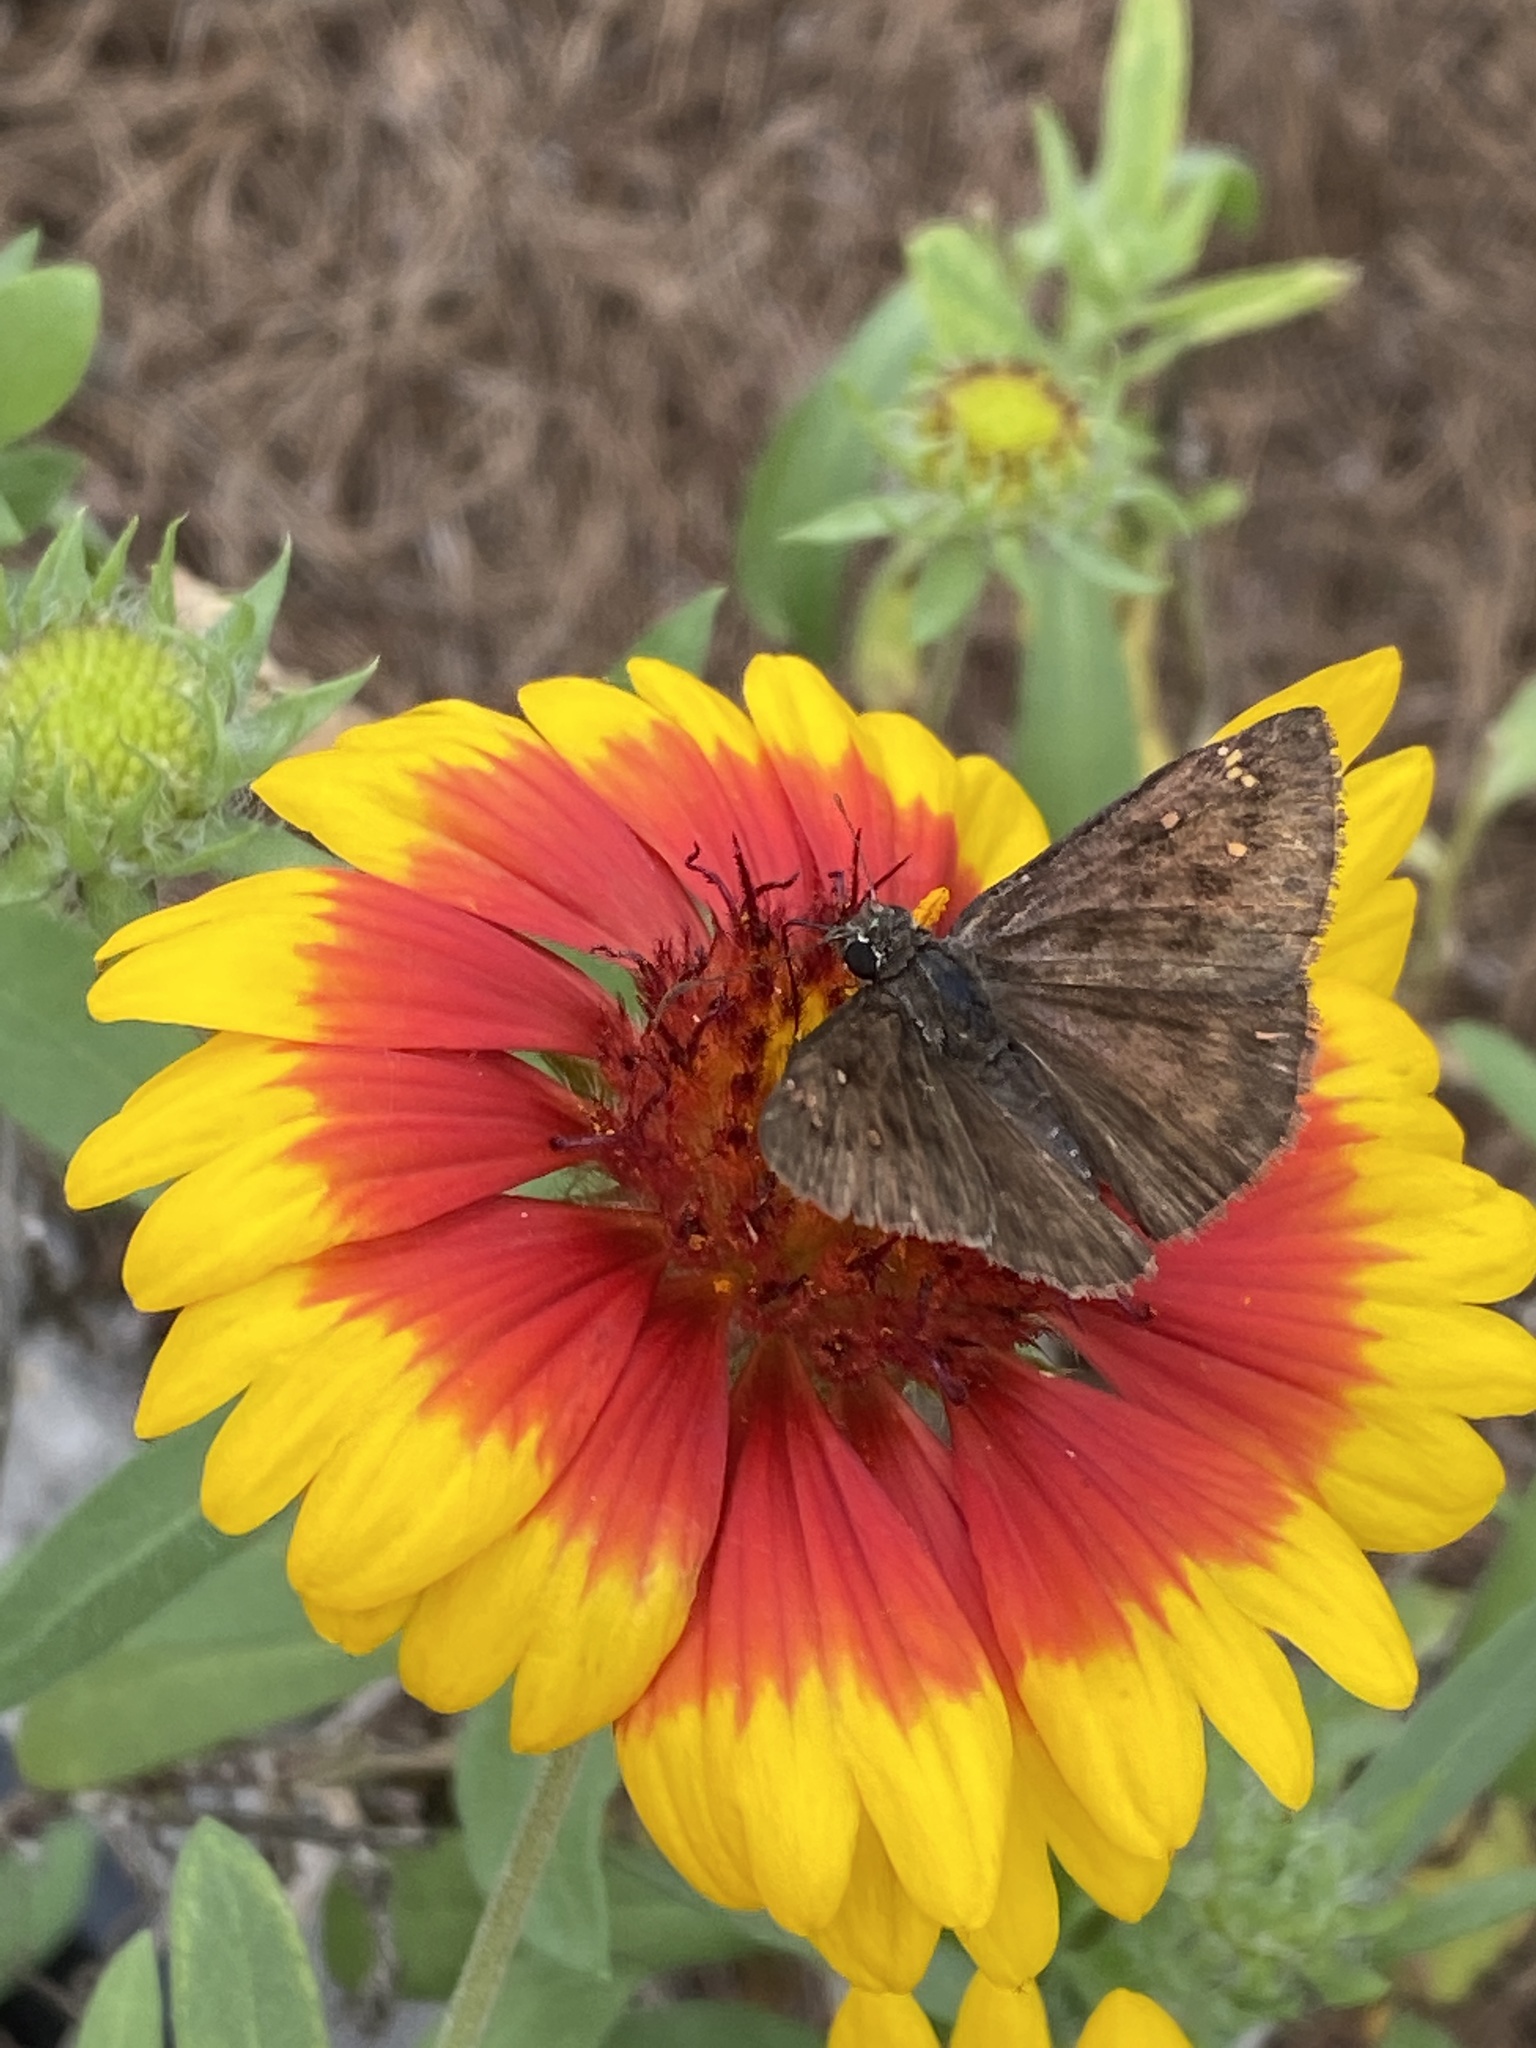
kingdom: Animalia
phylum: Arthropoda
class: Insecta
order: Lepidoptera
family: Hesperiidae
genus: Erynnis
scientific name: Erynnis horatius
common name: Horace's duskywing
